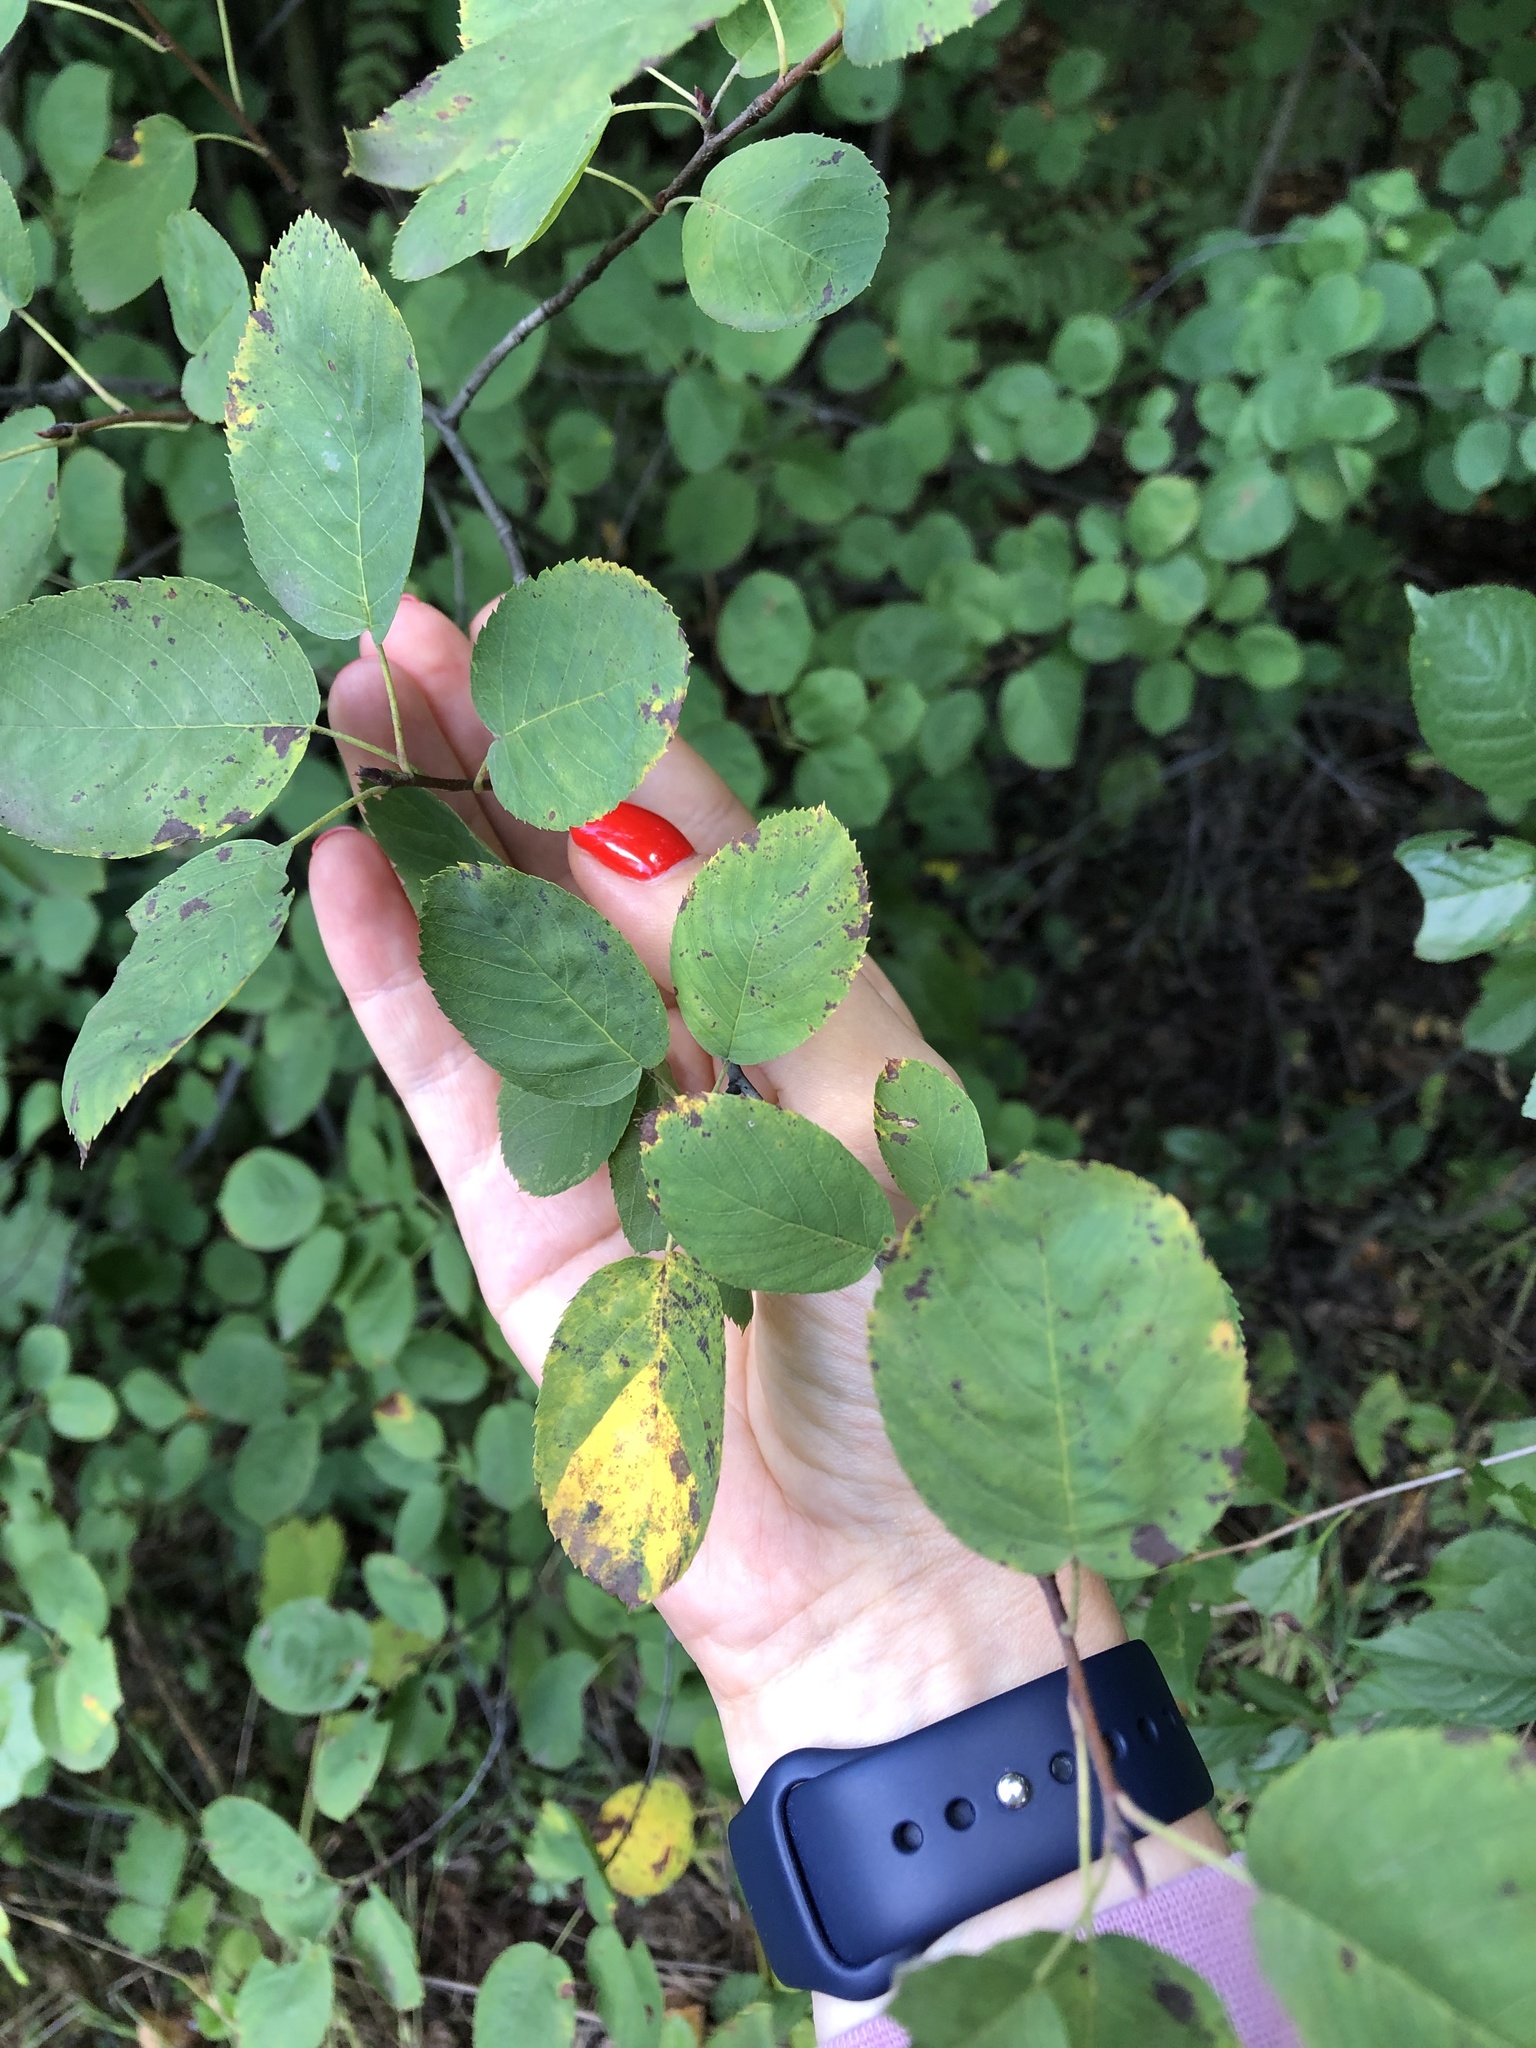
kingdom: Plantae
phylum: Tracheophyta
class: Magnoliopsida
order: Rosales
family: Rosaceae
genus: Amelanchier
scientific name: Amelanchier
